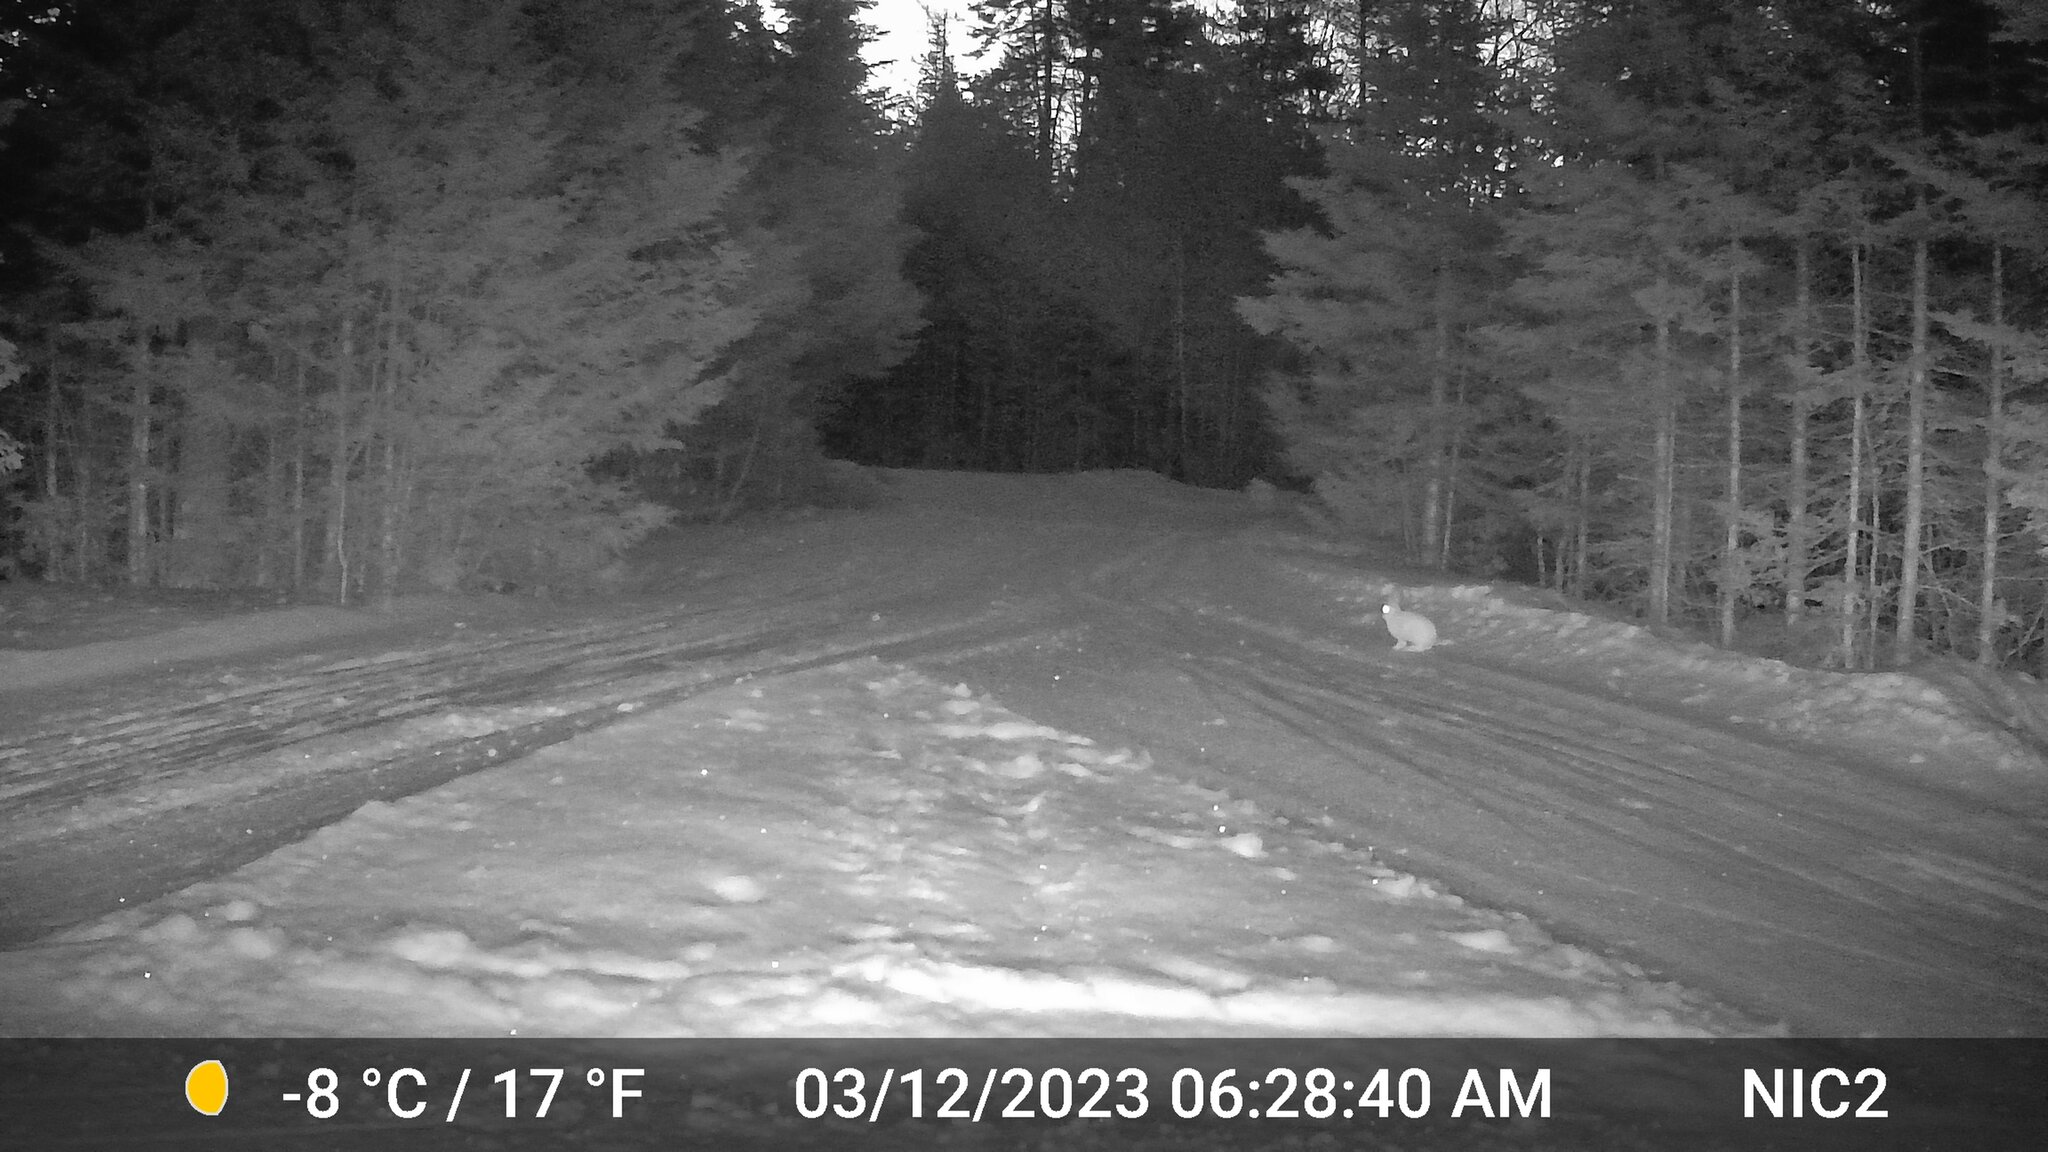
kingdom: Animalia
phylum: Chordata
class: Mammalia
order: Lagomorpha
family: Leporidae
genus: Lepus
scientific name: Lepus americanus
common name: Snowshoe hare
